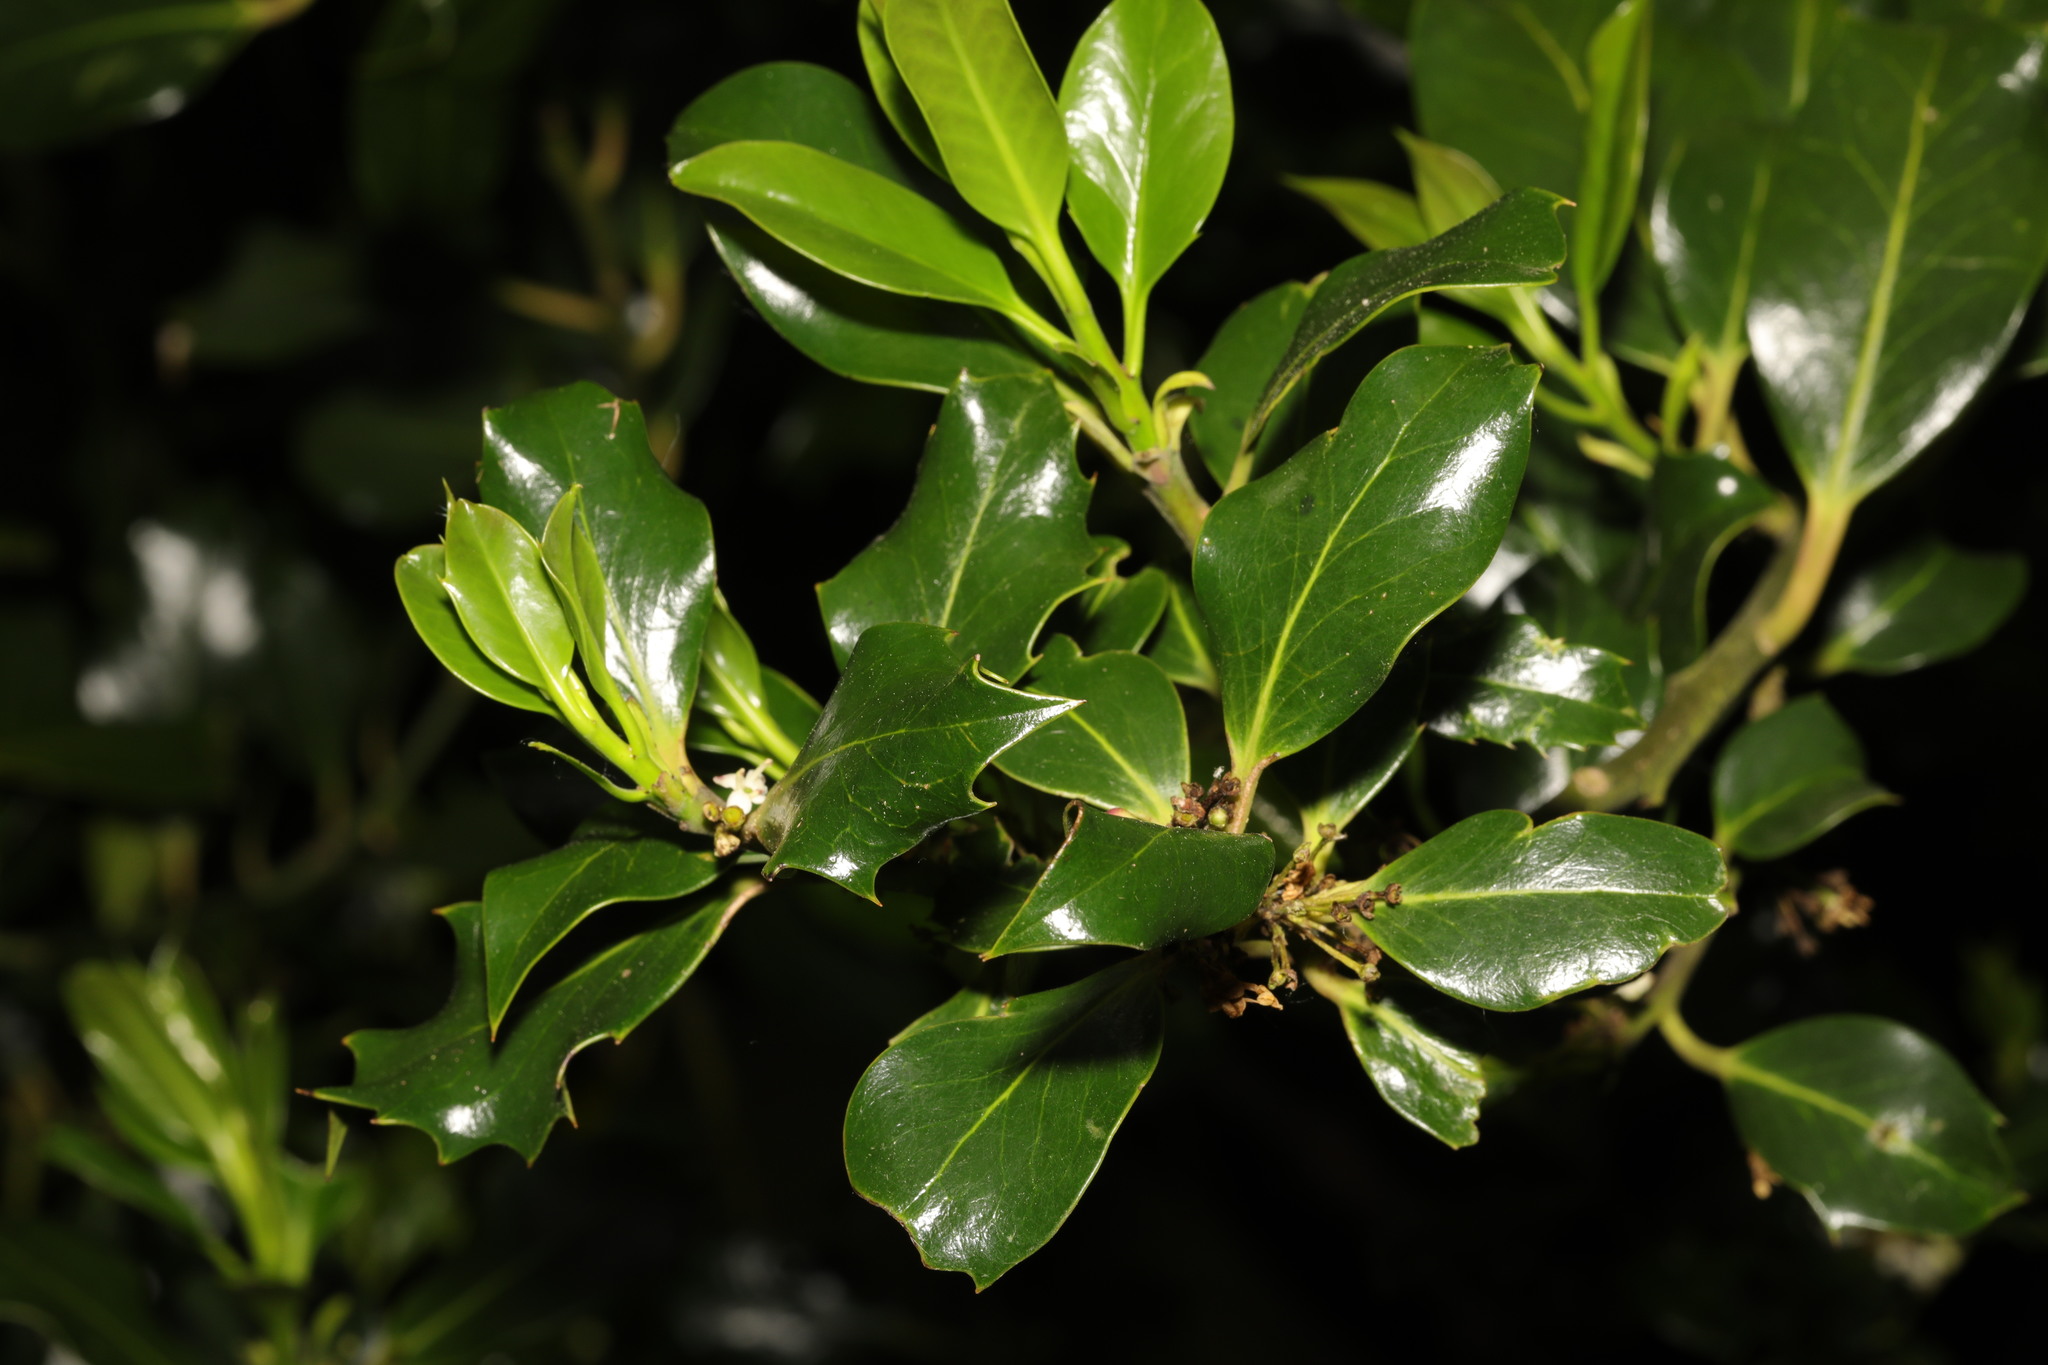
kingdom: Plantae
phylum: Tracheophyta
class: Magnoliopsida
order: Aquifoliales
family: Aquifoliaceae
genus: Ilex
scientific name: Ilex aquifolium
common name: English holly
